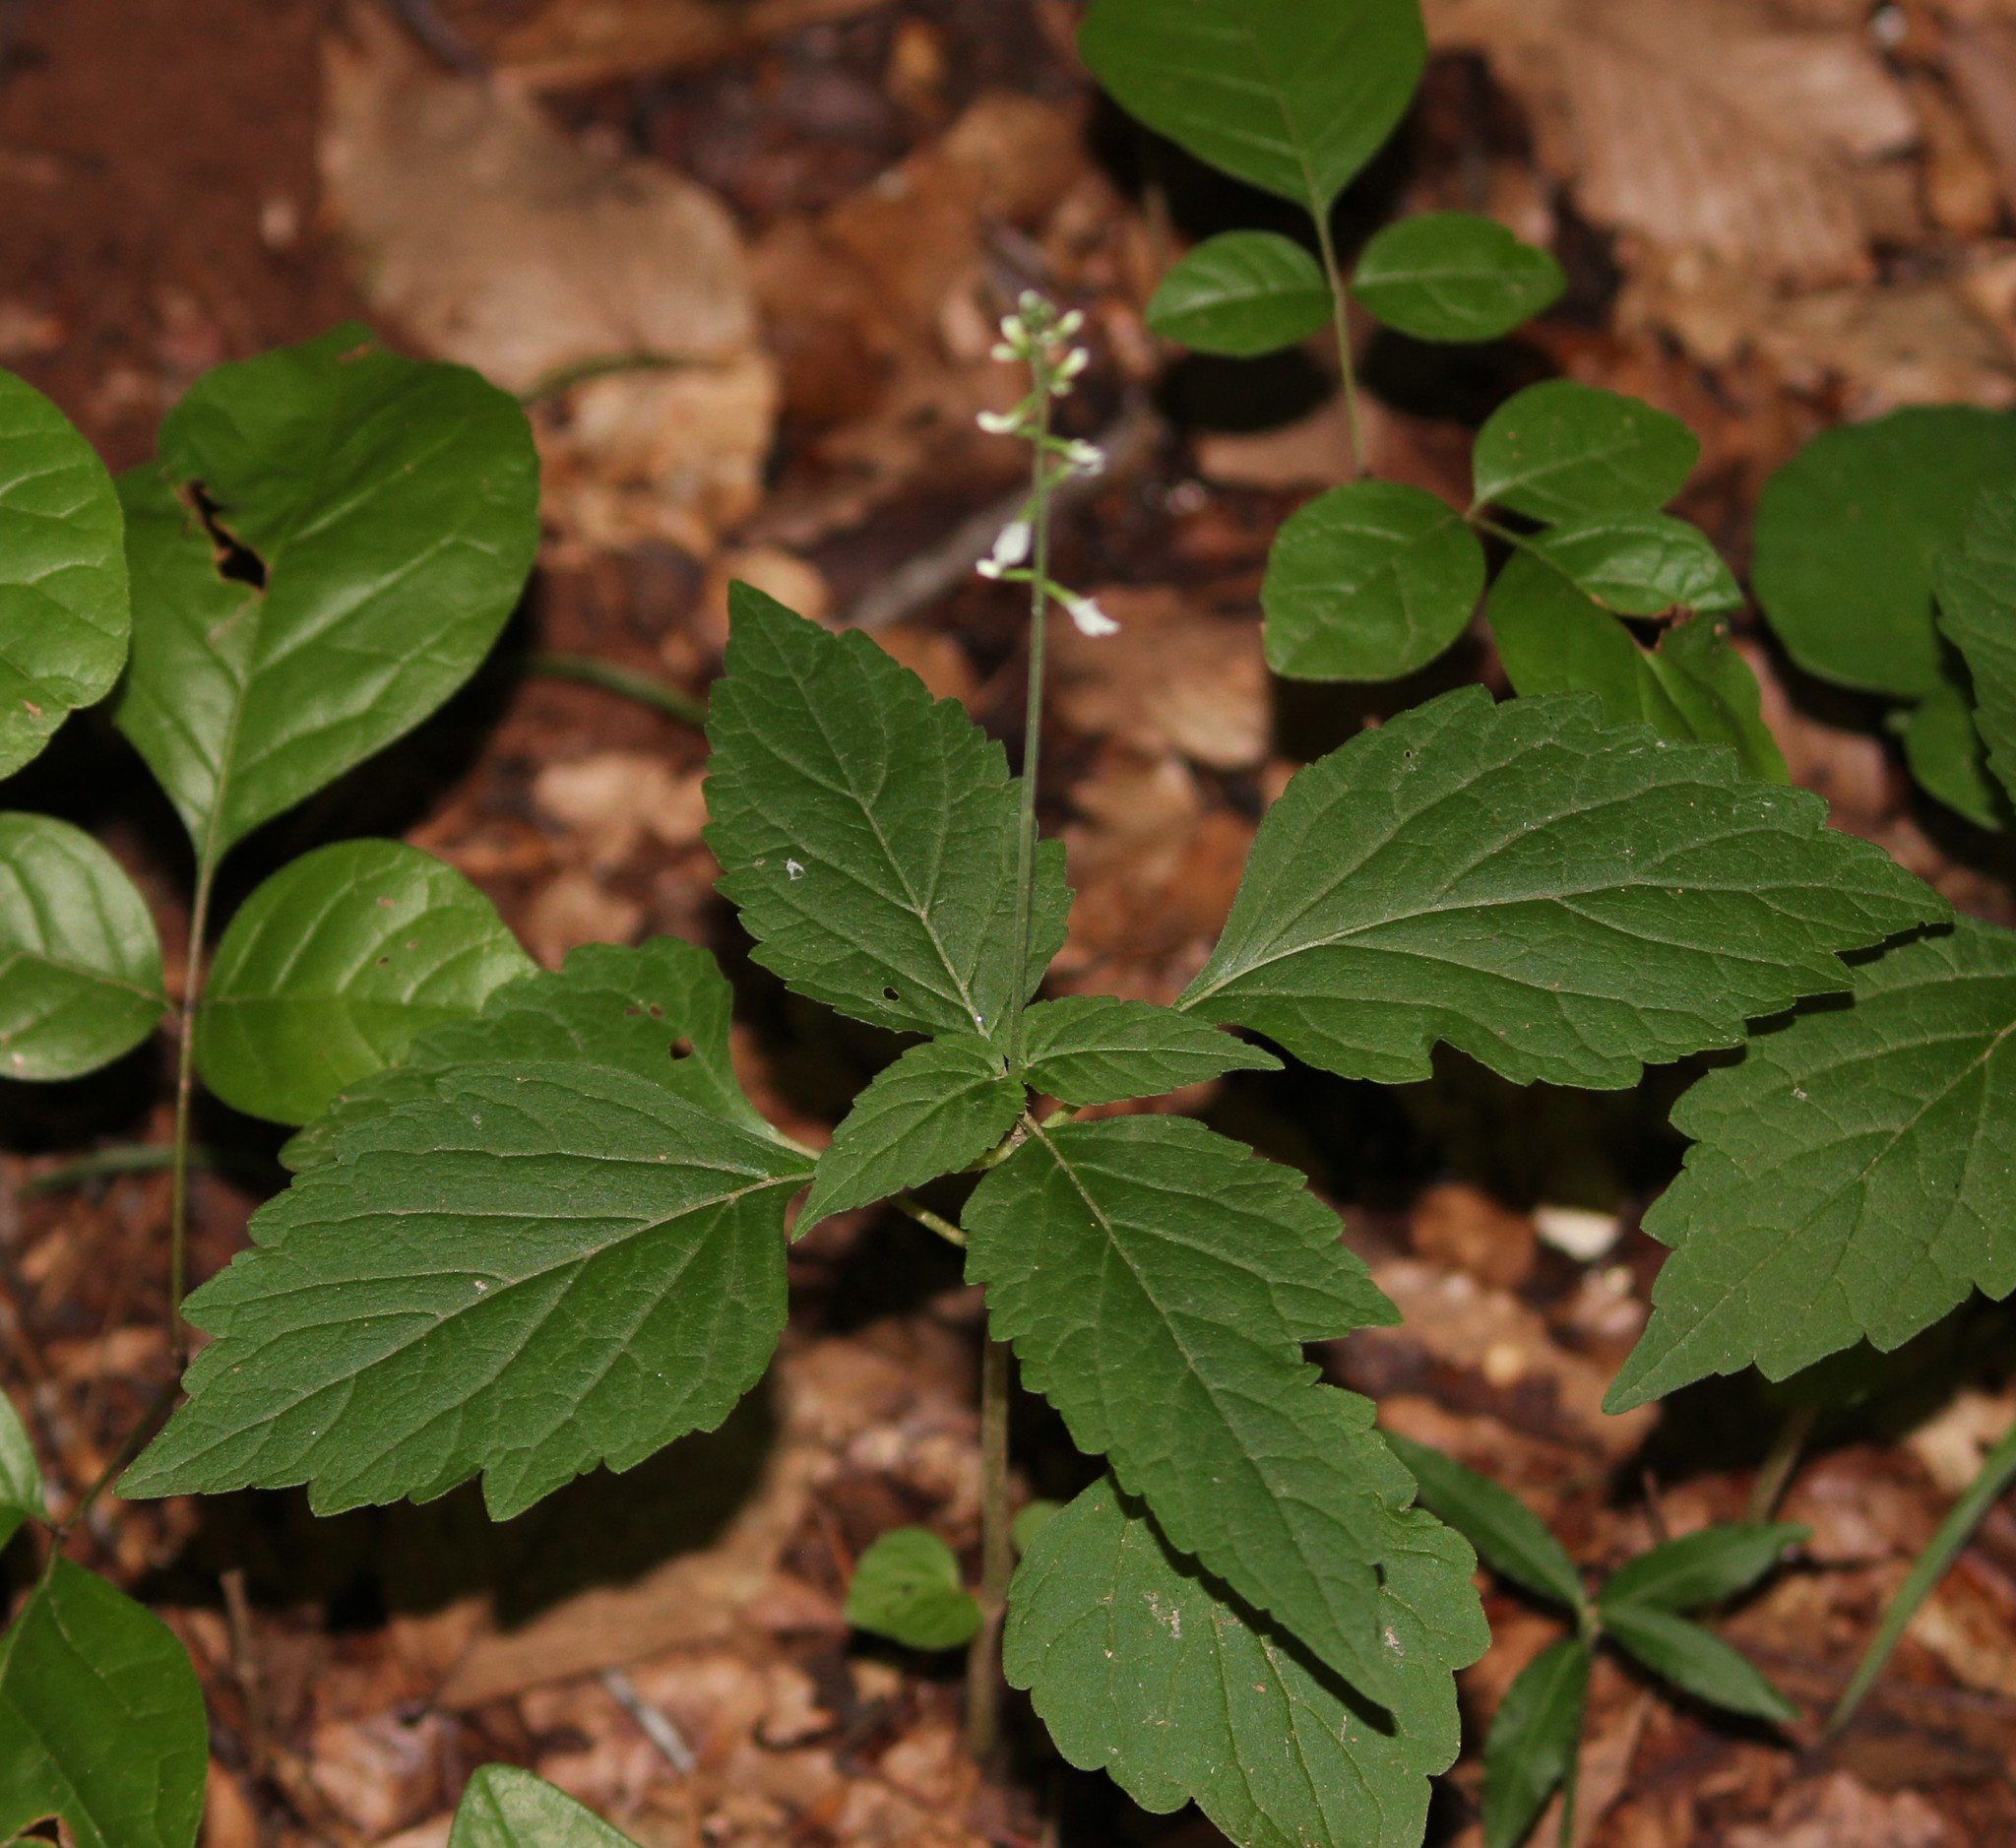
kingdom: Plantae
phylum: Tracheophyta
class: Magnoliopsida
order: Lamiales
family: Phrymaceae
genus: Phryma
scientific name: Phryma leptostachya
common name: American lopseed
